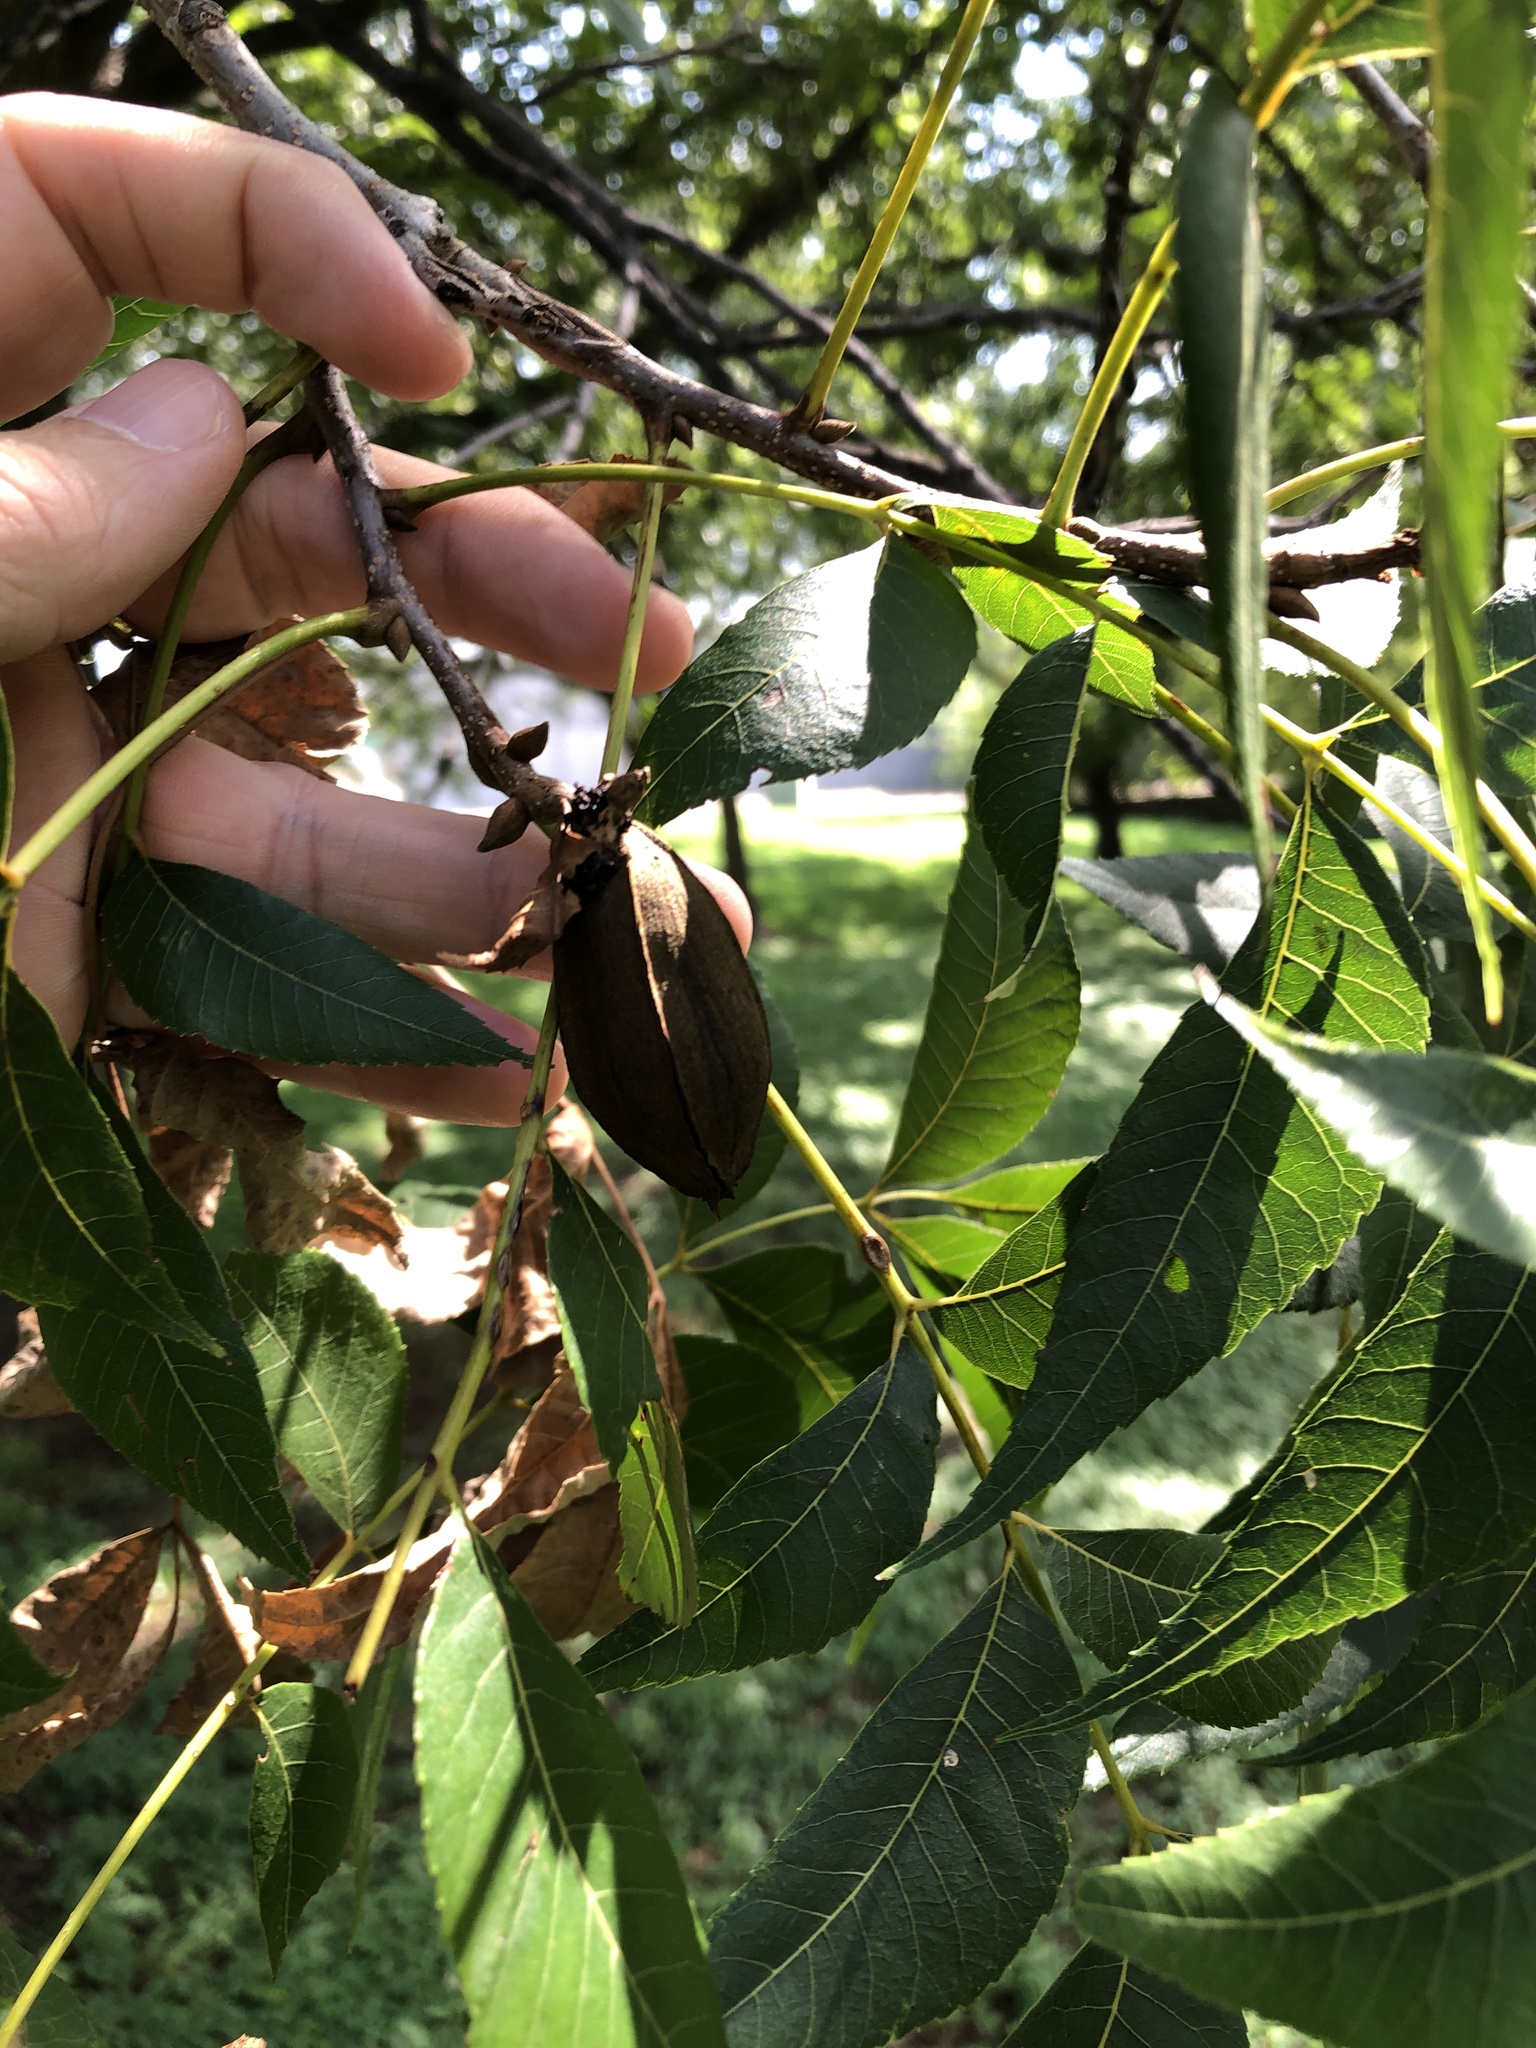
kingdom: Plantae
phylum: Tracheophyta
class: Magnoliopsida
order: Fagales
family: Juglandaceae
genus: Carya
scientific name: Carya illinoinensis
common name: Pecan
